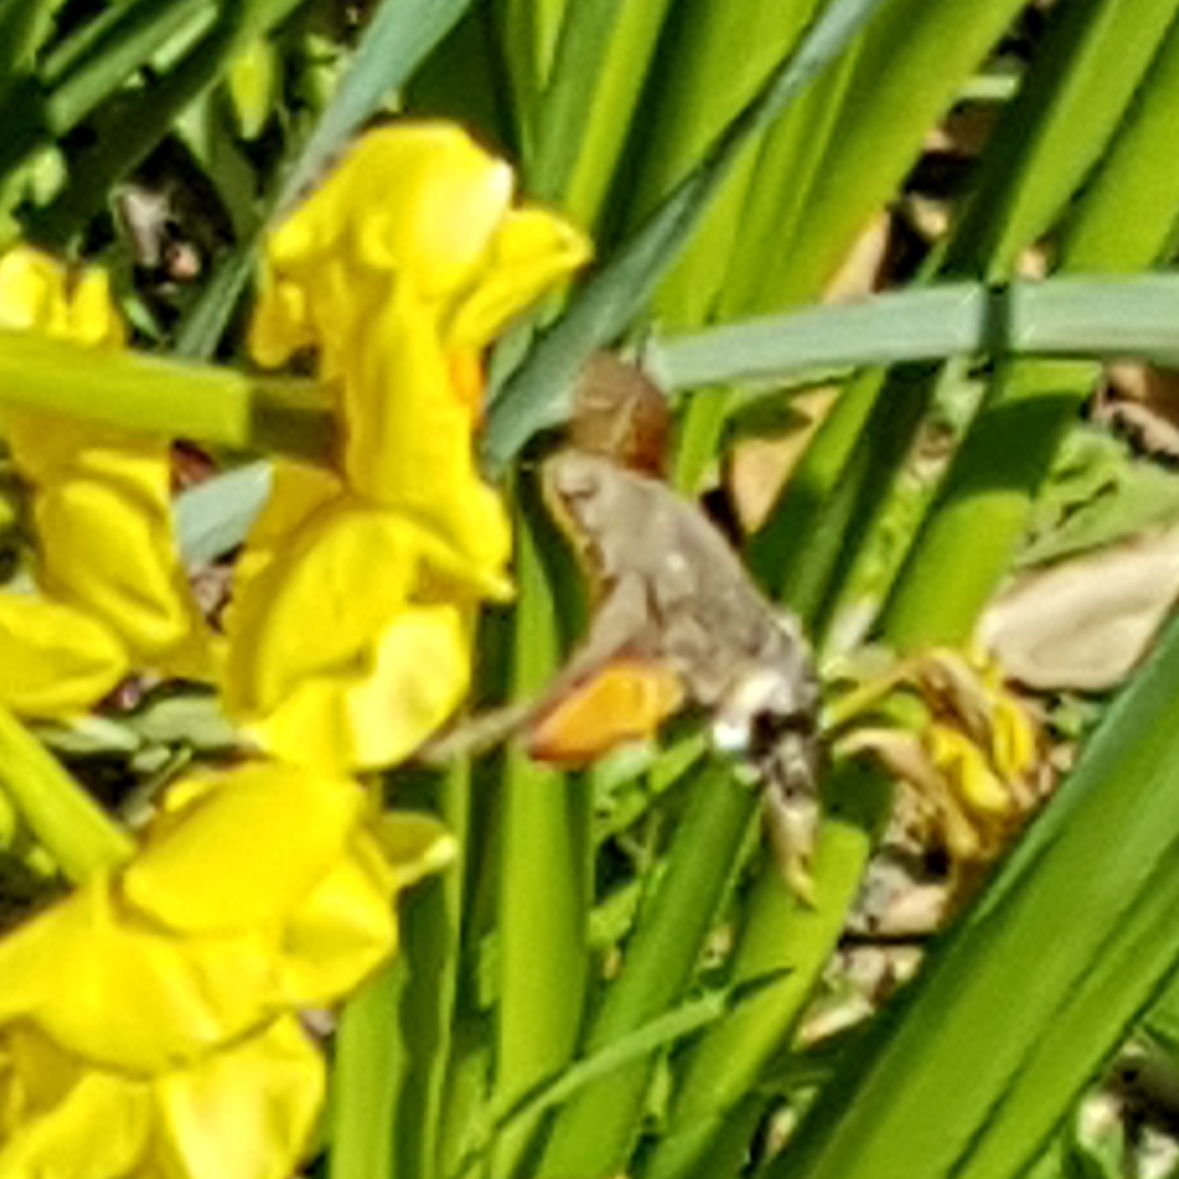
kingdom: Animalia
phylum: Arthropoda
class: Insecta
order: Lepidoptera
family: Sphingidae
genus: Macroglossum
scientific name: Macroglossum stellatarum
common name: Humming-bird hawk-moth
